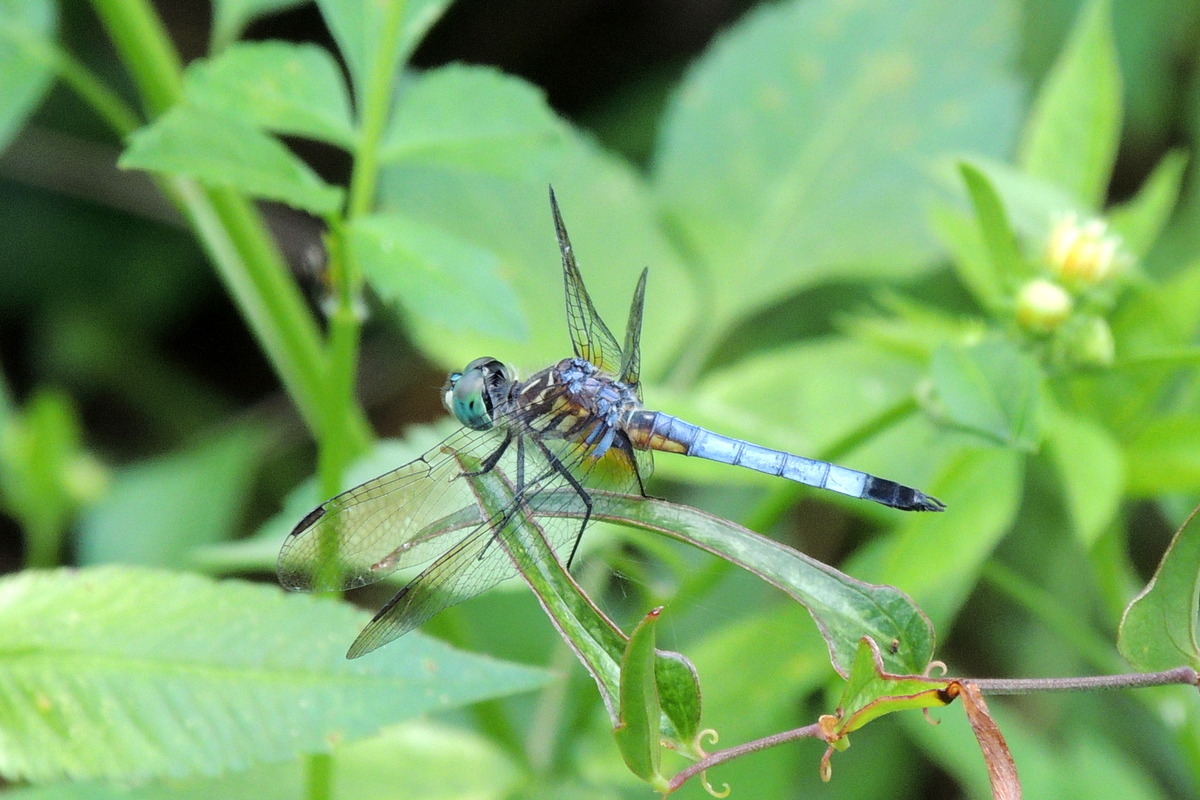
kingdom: Animalia
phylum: Arthropoda
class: Insecta
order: Odonata
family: Libellulidae
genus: Pachydiplax
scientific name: Pachydiplax longipennis
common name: Blue dasher
